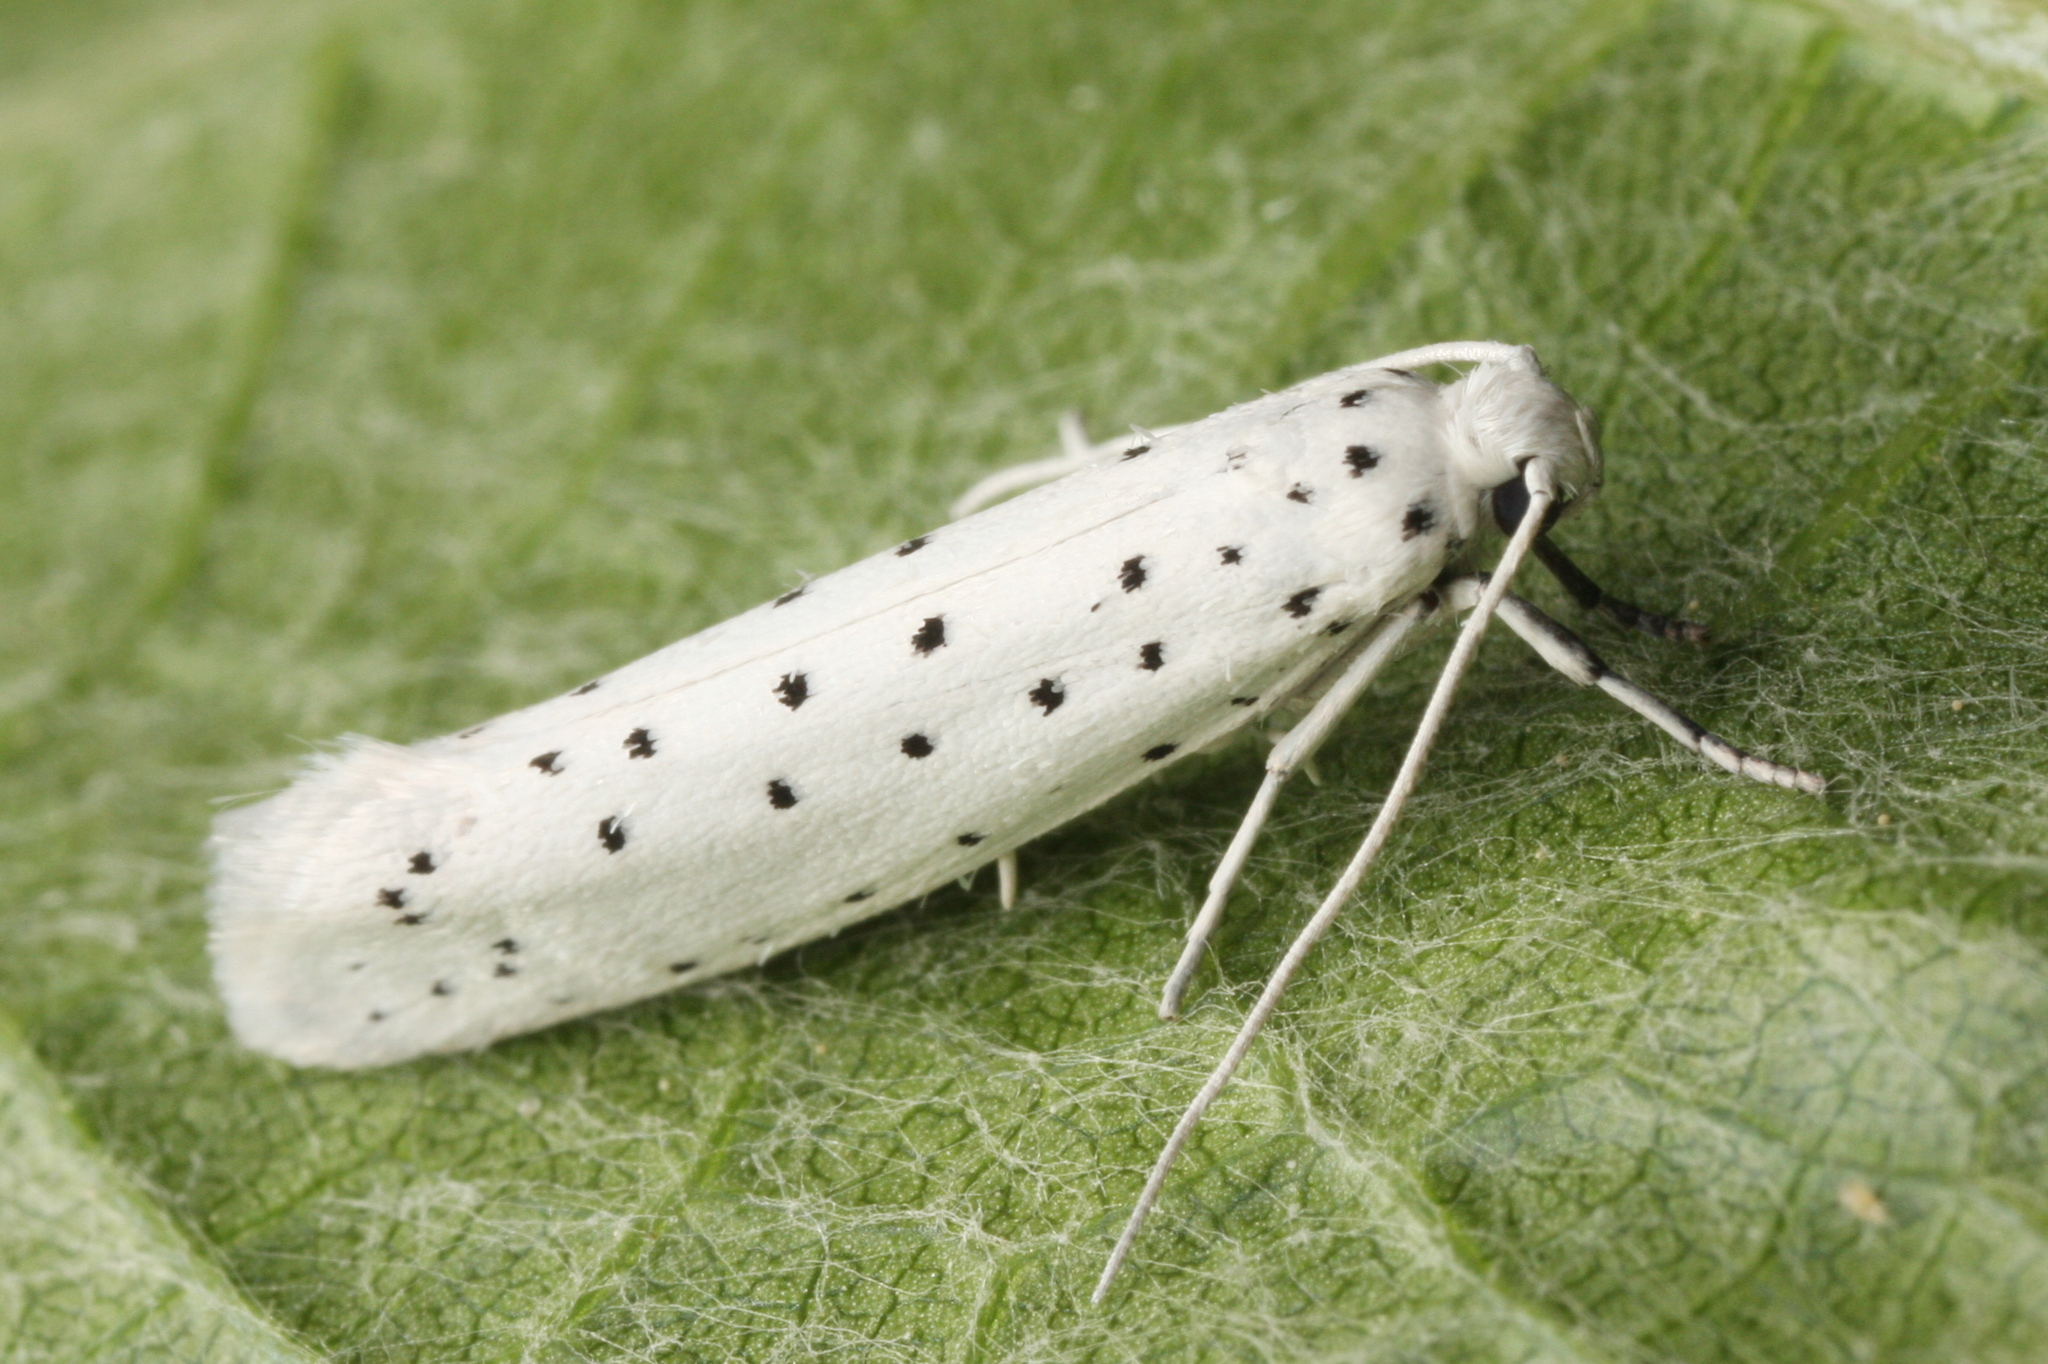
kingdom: Animalia
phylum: Arthropoda
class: Insecta
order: Lepidoptera
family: Yponomeutidae
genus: Yponomeuta
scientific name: Yponomeuta cagnagellus
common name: Spindle ermine
